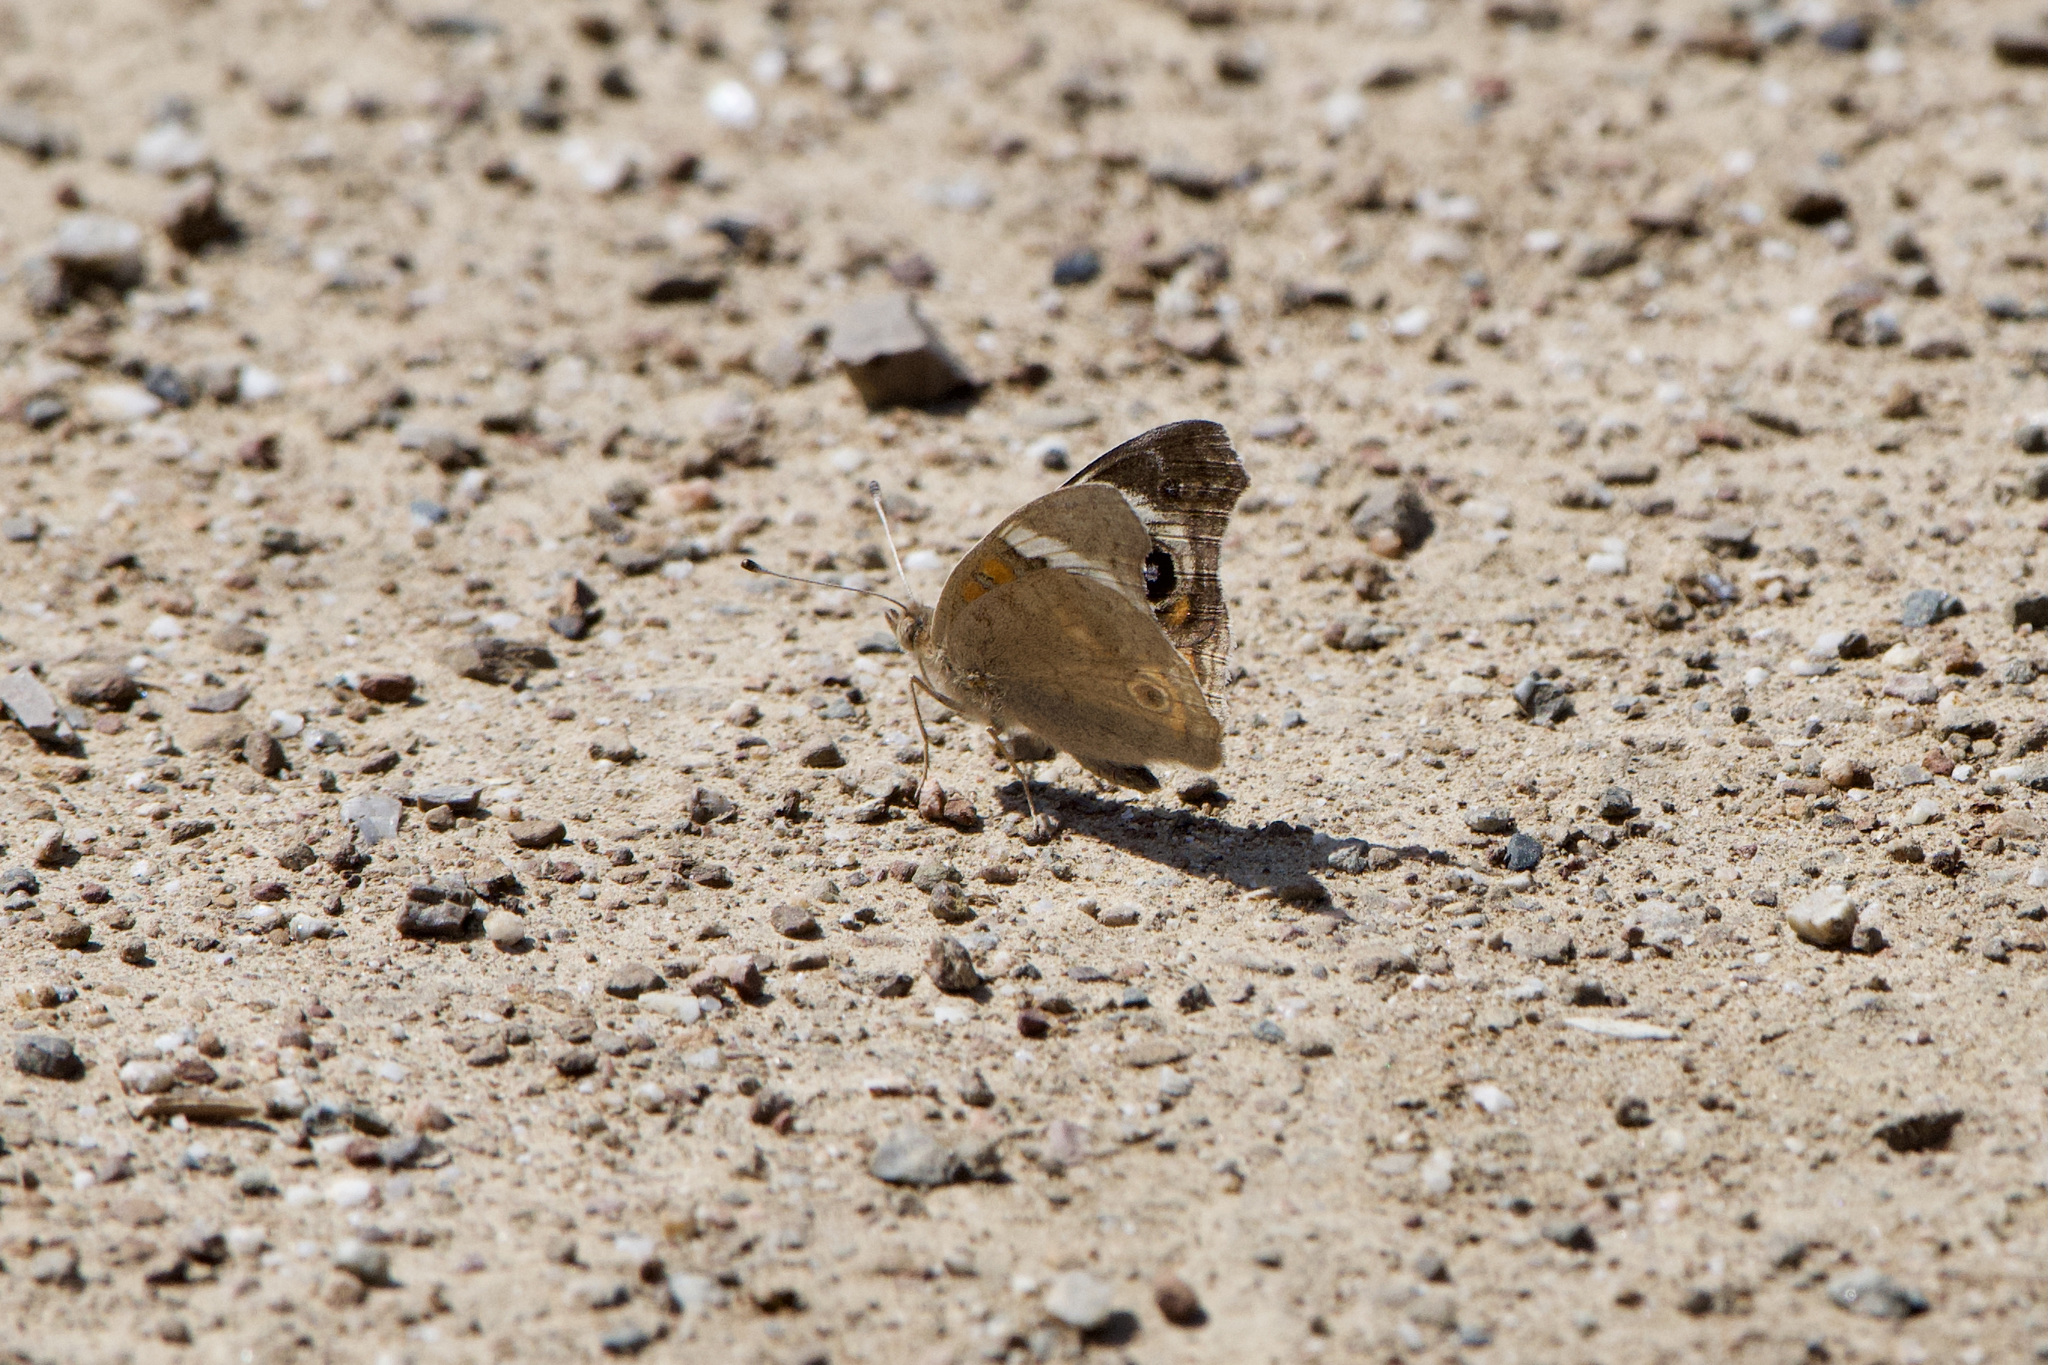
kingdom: Animalia
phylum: Arthropoda
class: Insecta
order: Lepidoptera
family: Nymphalidae
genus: Junonia
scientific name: Junonia grisea
